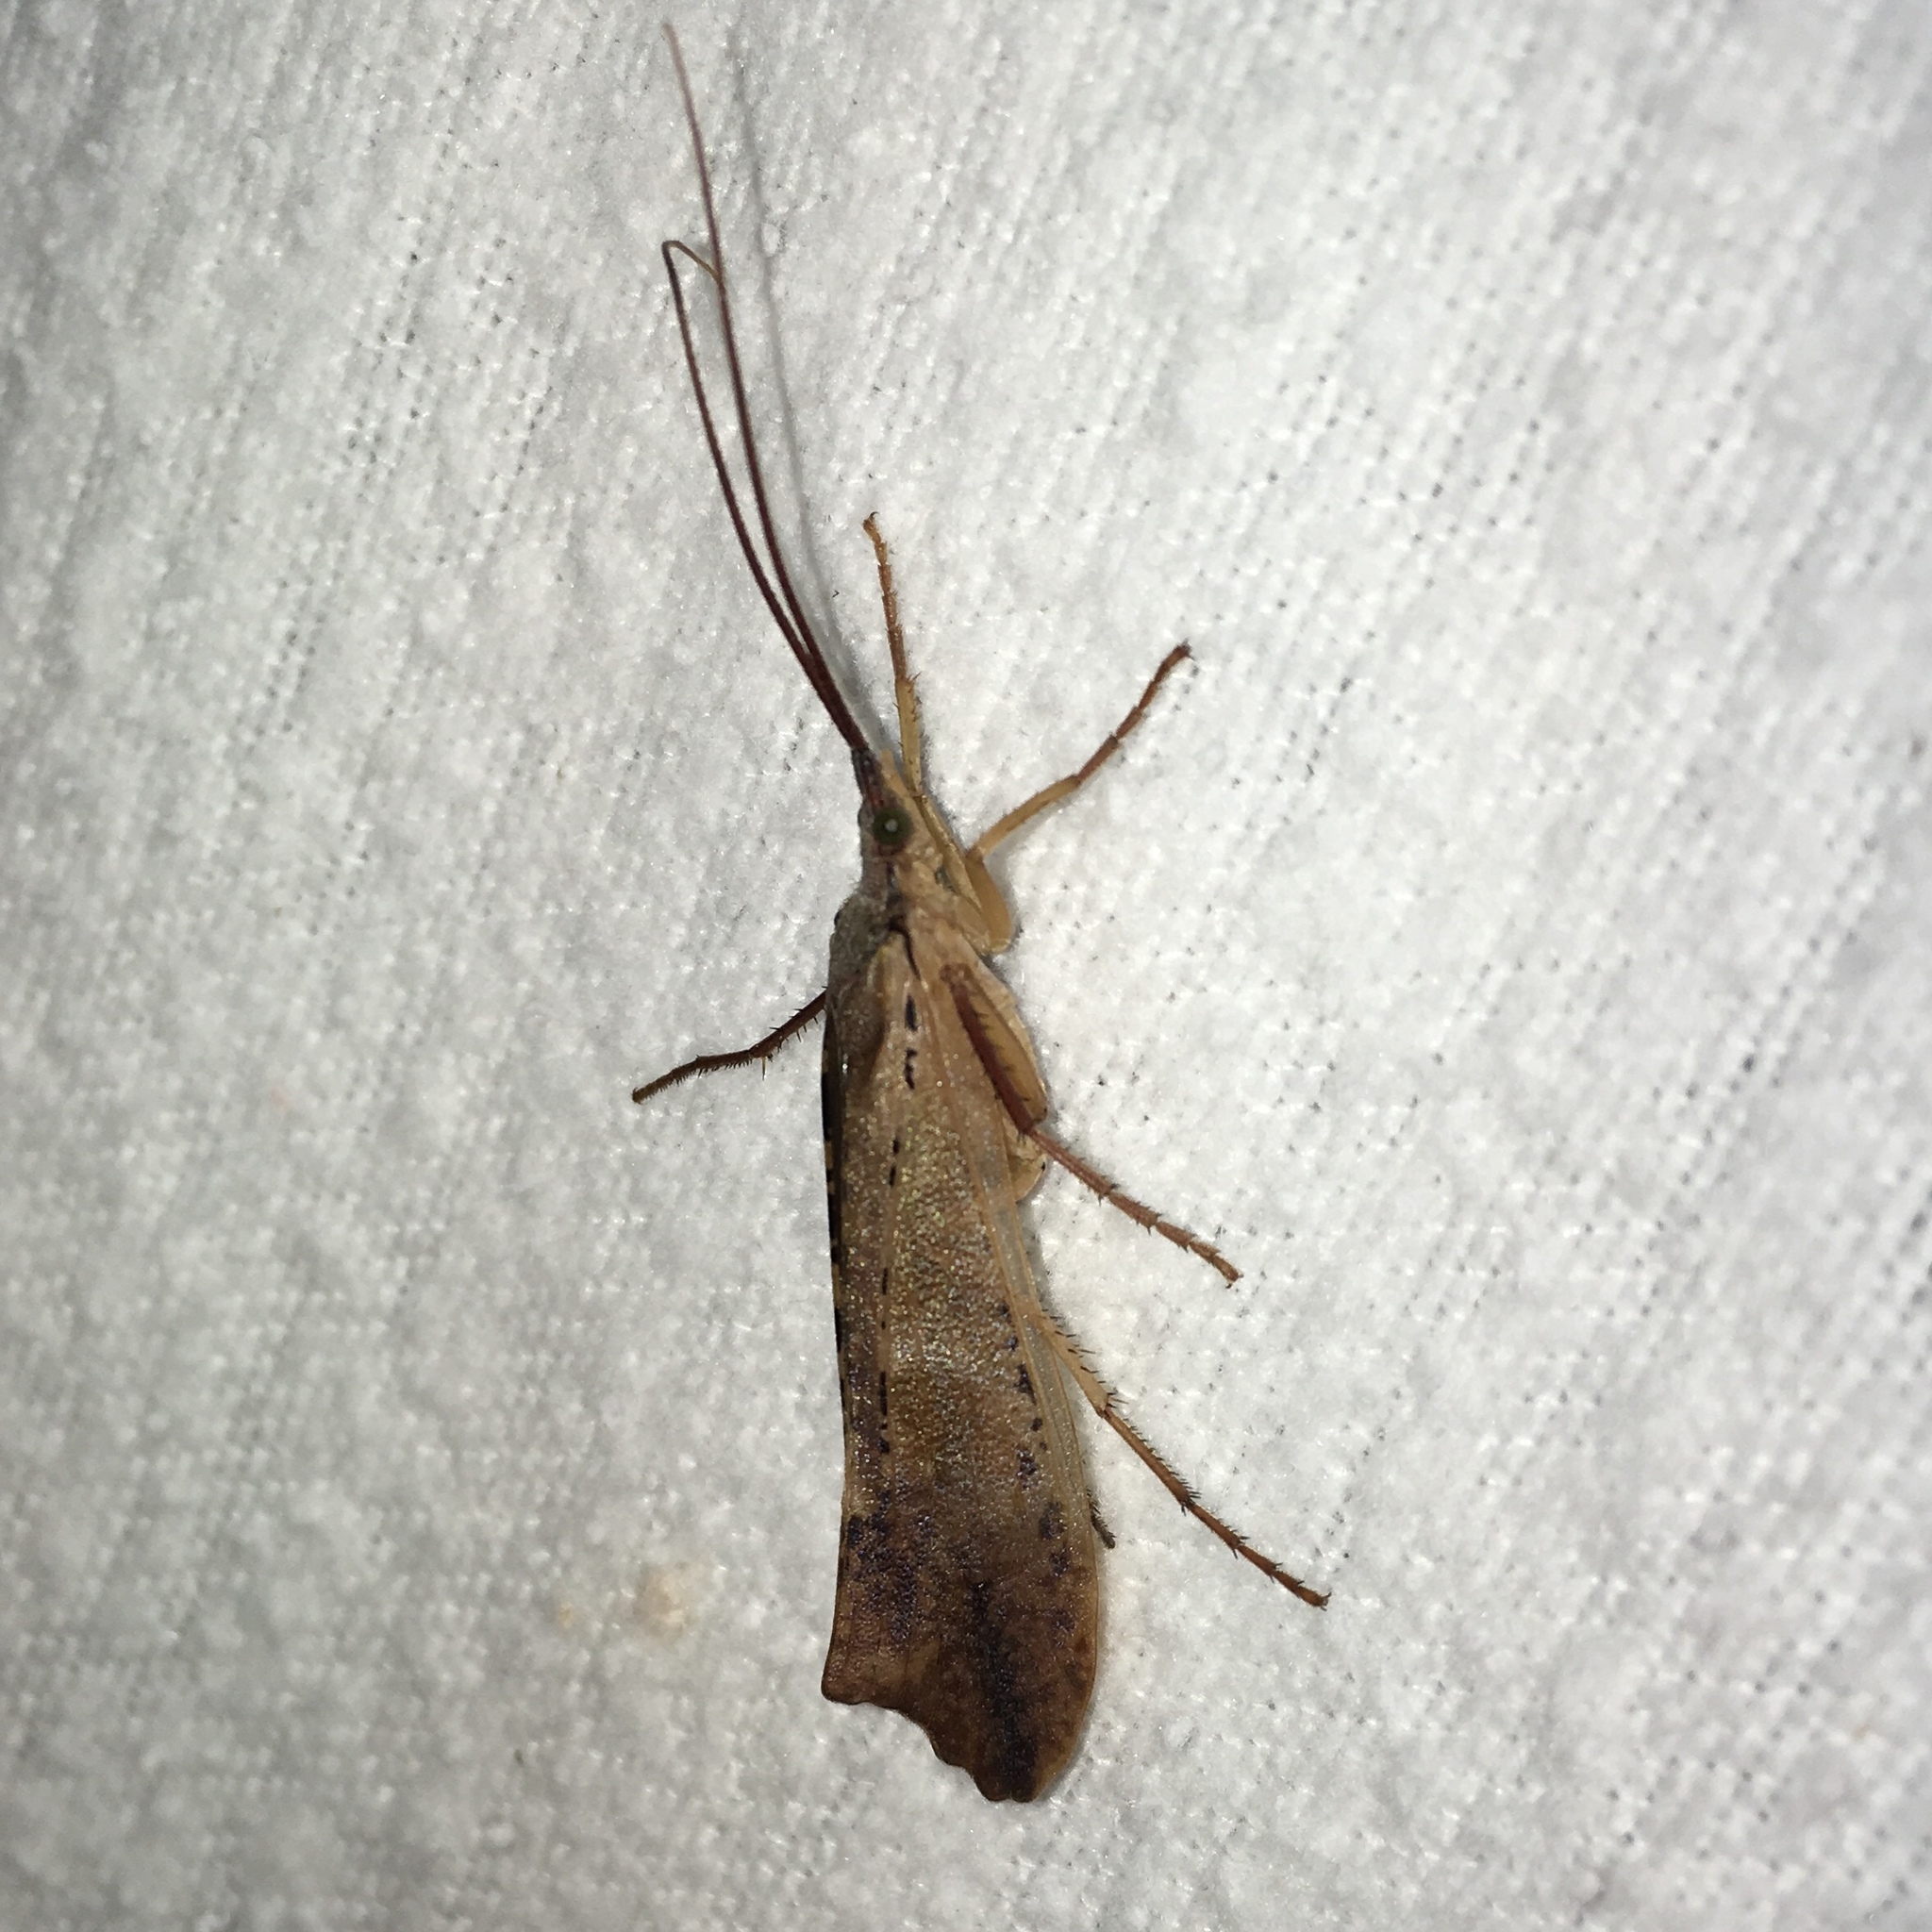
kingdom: Animalia
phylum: Arthropoda
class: Insecta
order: Trichoptera
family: Limnephilidae
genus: Nemotaulius
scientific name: Nemotaulius hostilis
